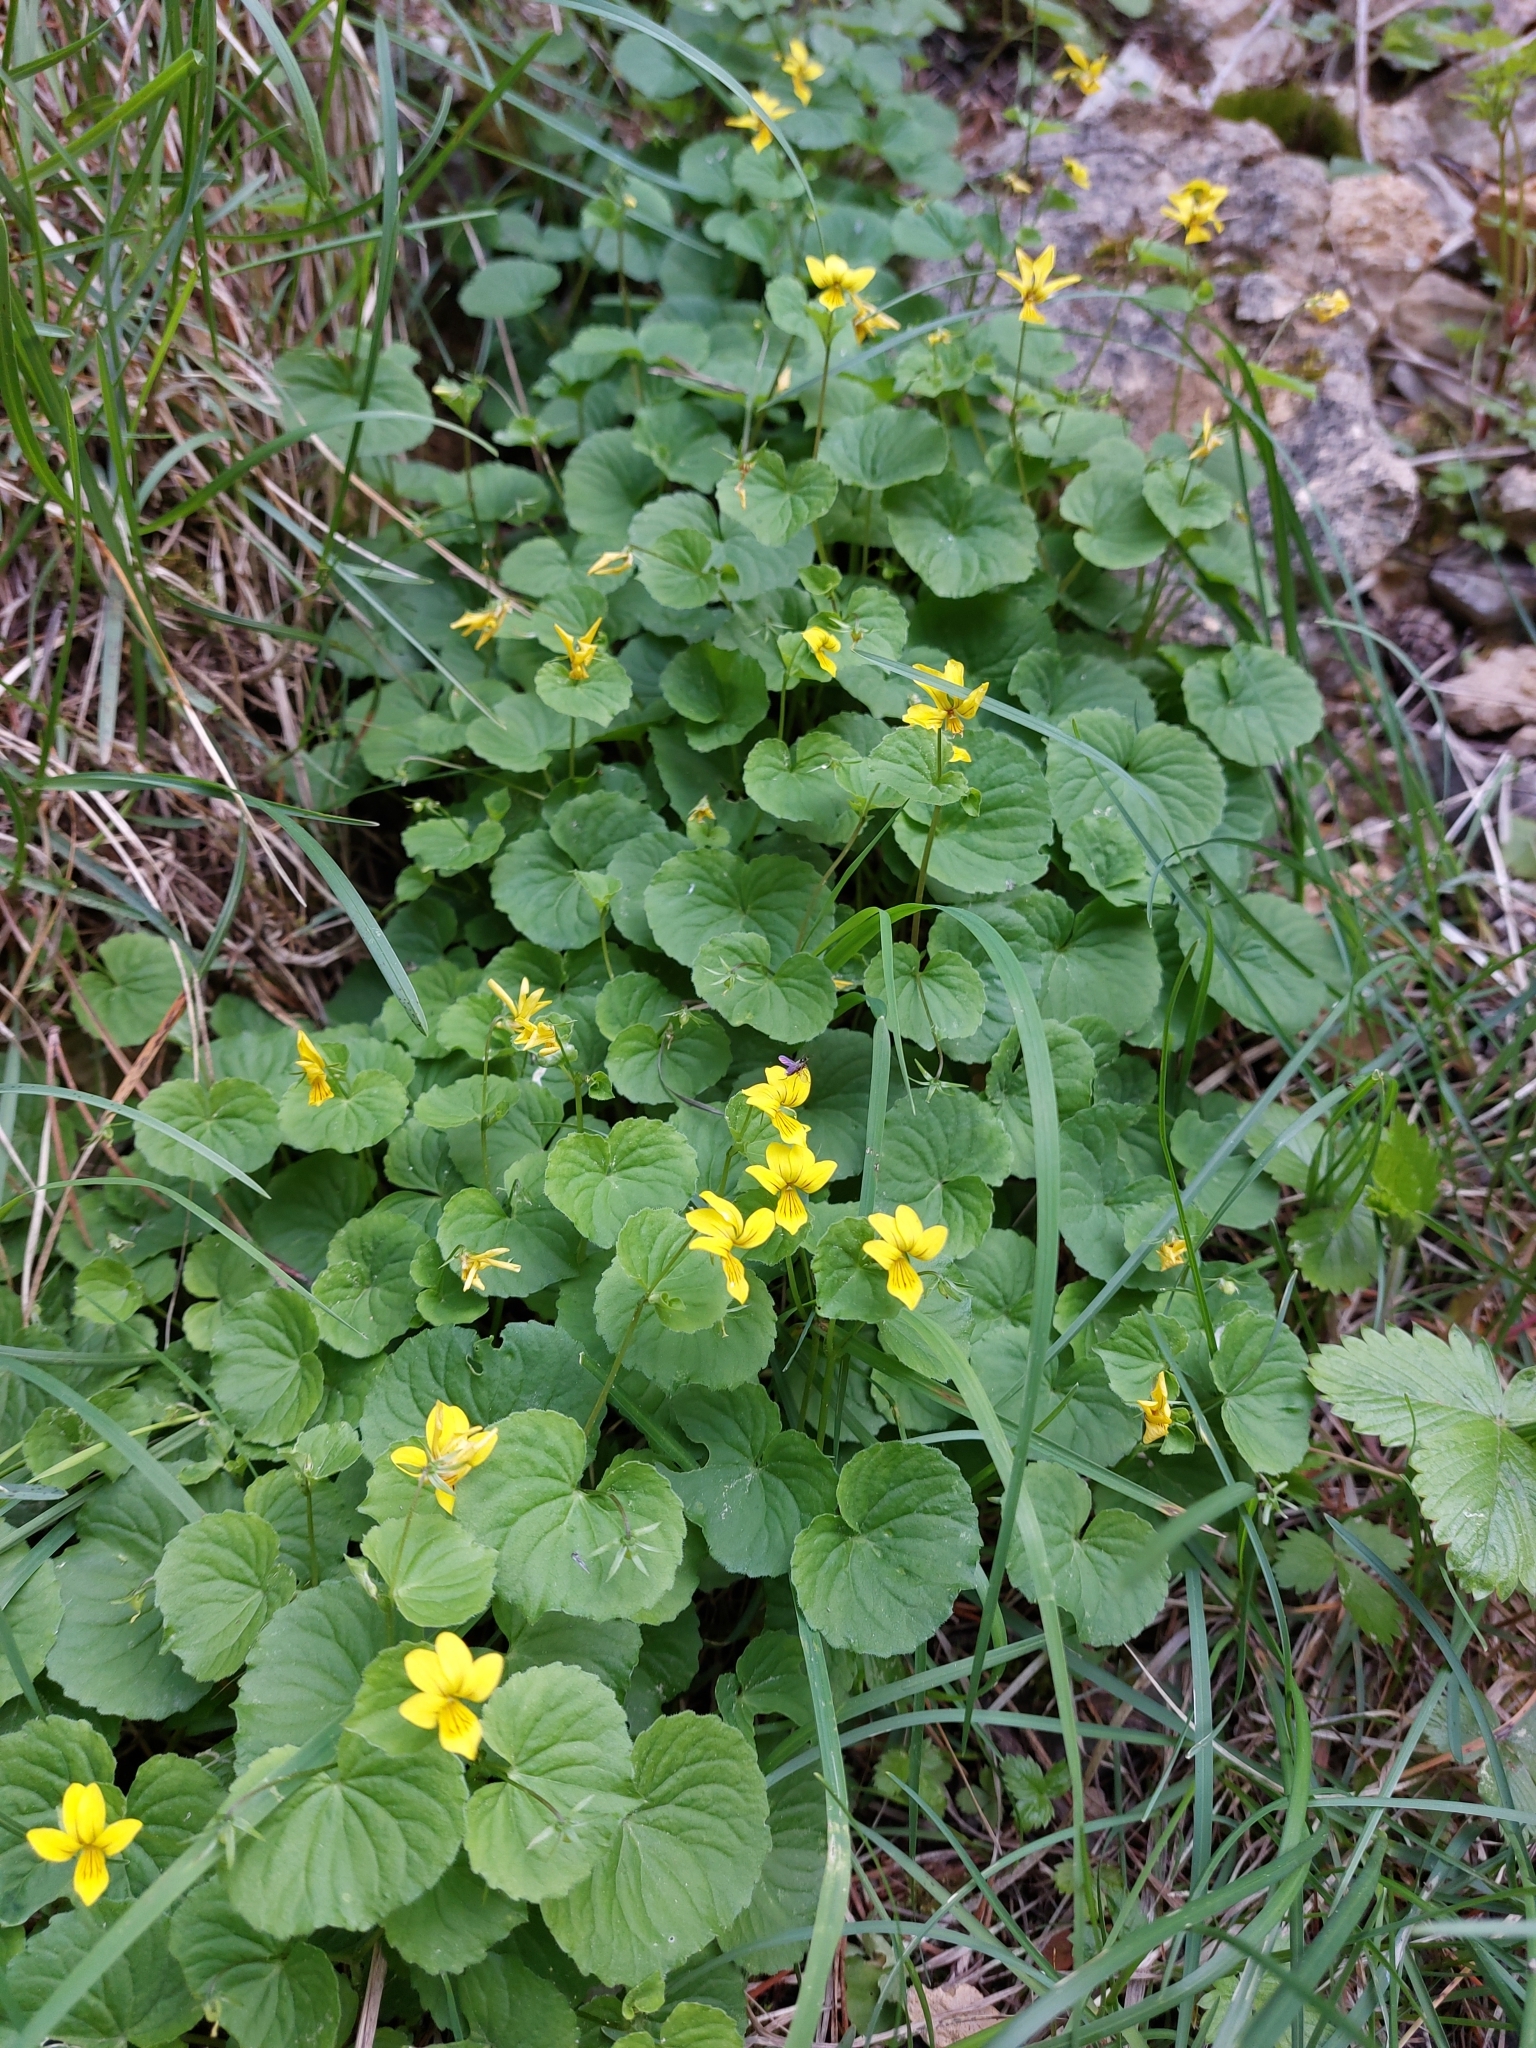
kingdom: Plantae
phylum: Tracheophyta
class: Magnoliopsida
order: Malpighiales
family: Violaceae
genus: Viola
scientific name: Viola biflora
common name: Alpine yellow violet
